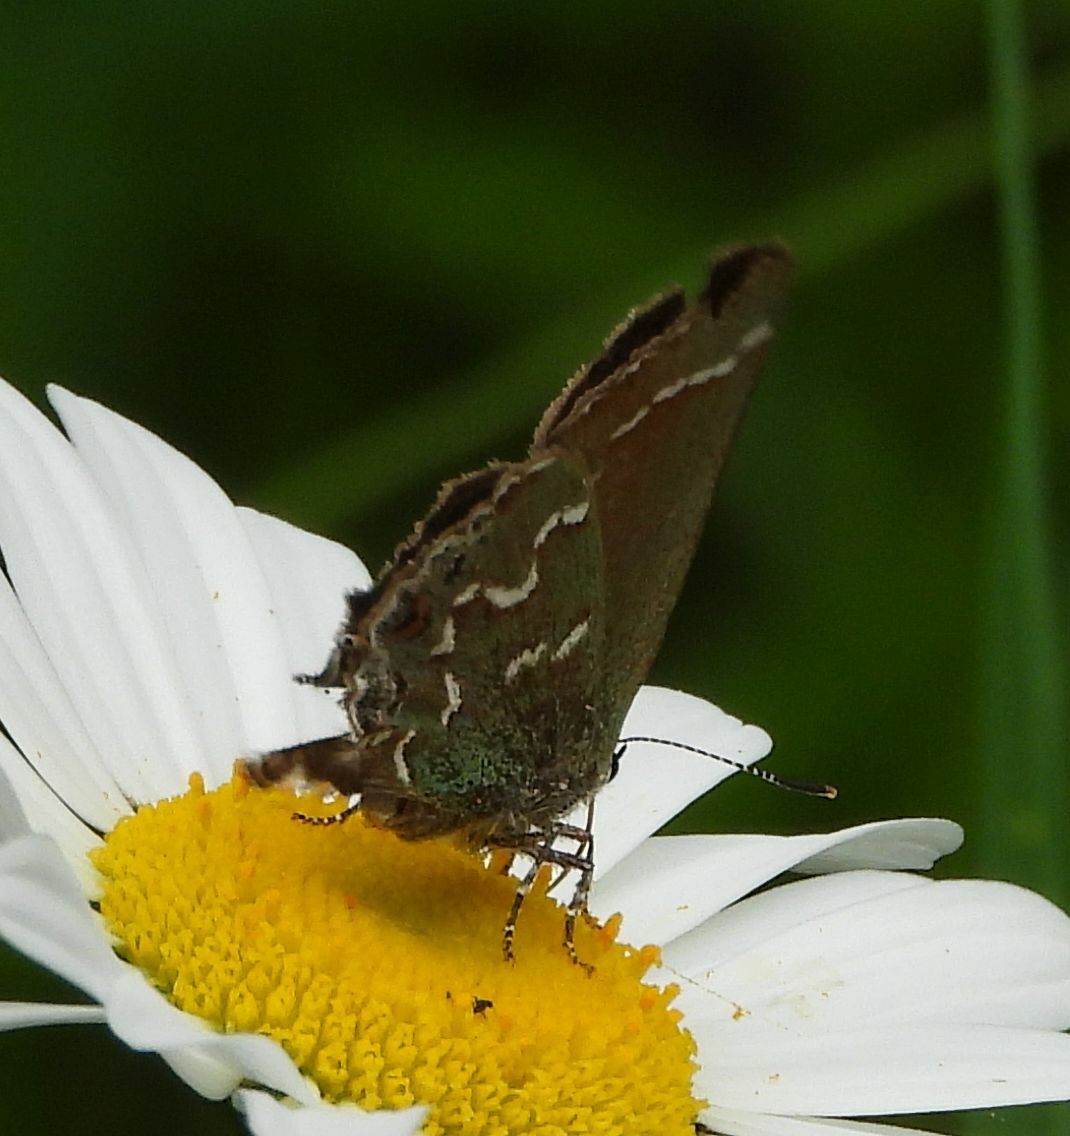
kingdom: Animalia
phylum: Arthropoda
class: Insecta
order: Lepidoptera
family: Lycaenidae
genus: Mitoura
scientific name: Mitoura gryneus
